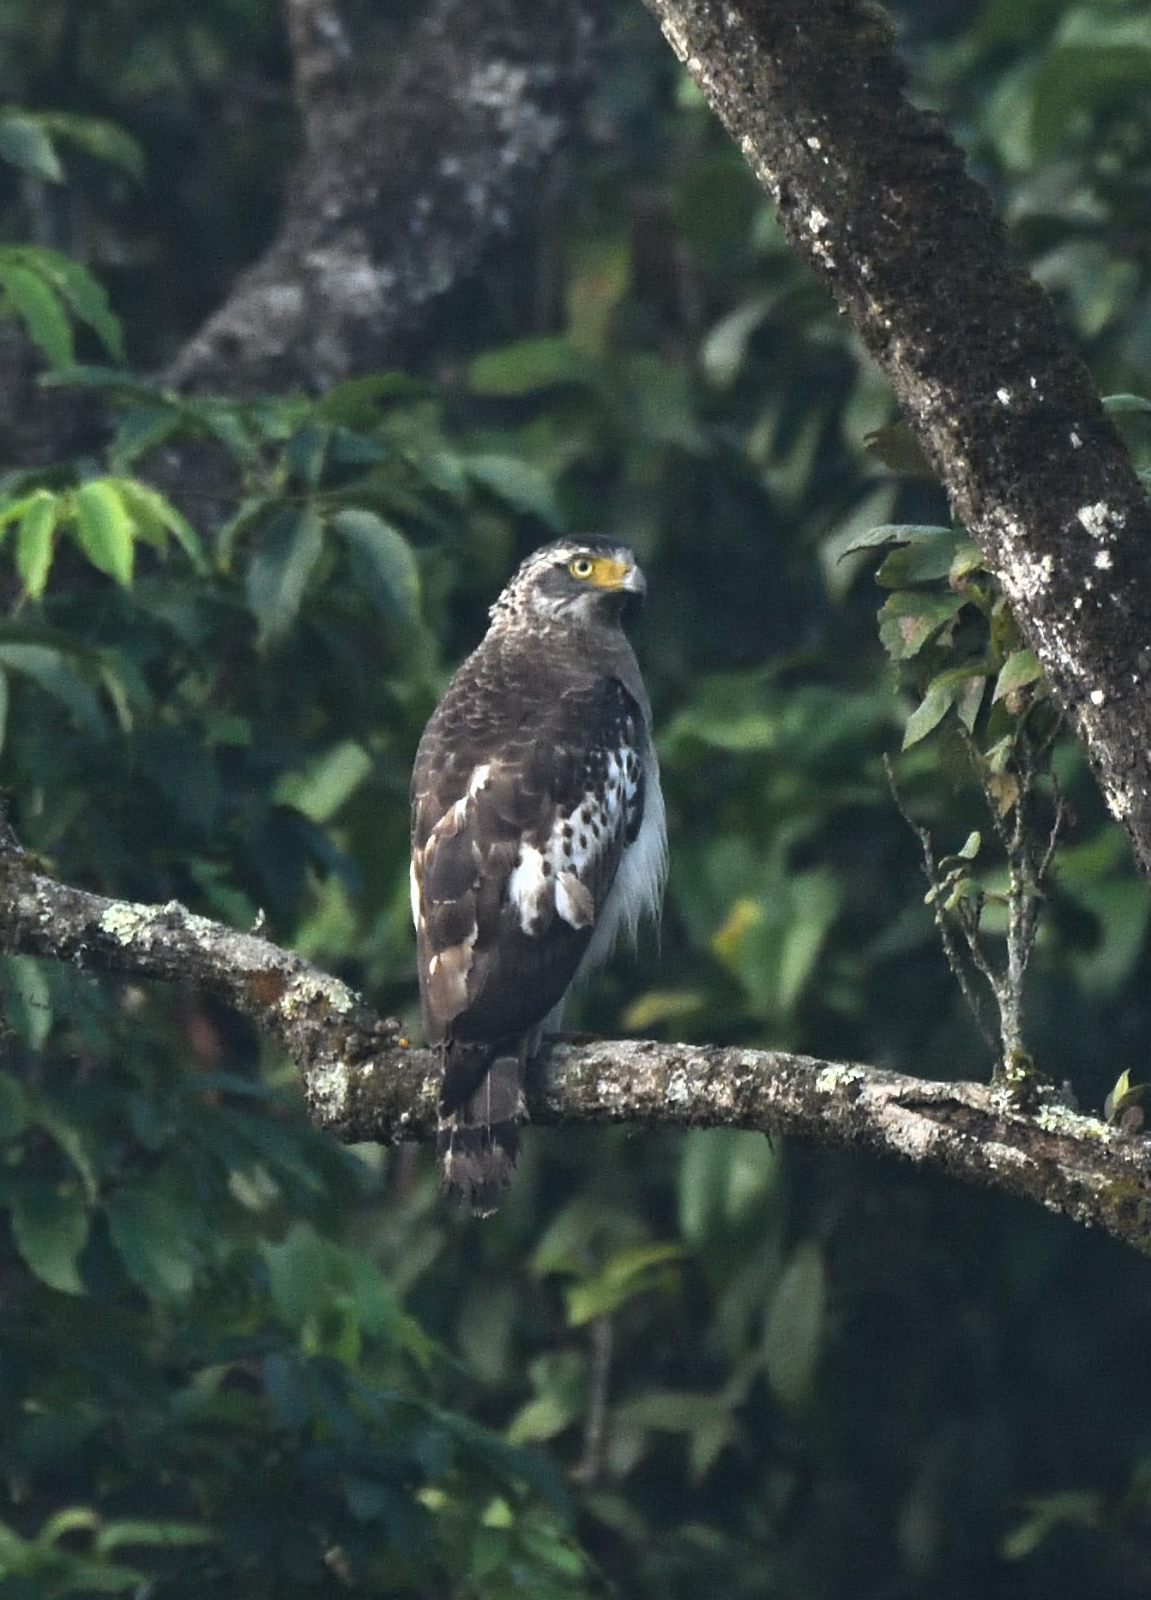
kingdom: Animalia
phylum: Chordata
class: Aves
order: Accipitriformes
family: Accipitridae
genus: Spilornis
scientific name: Spilornis cheela
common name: Crested serpent eagle
